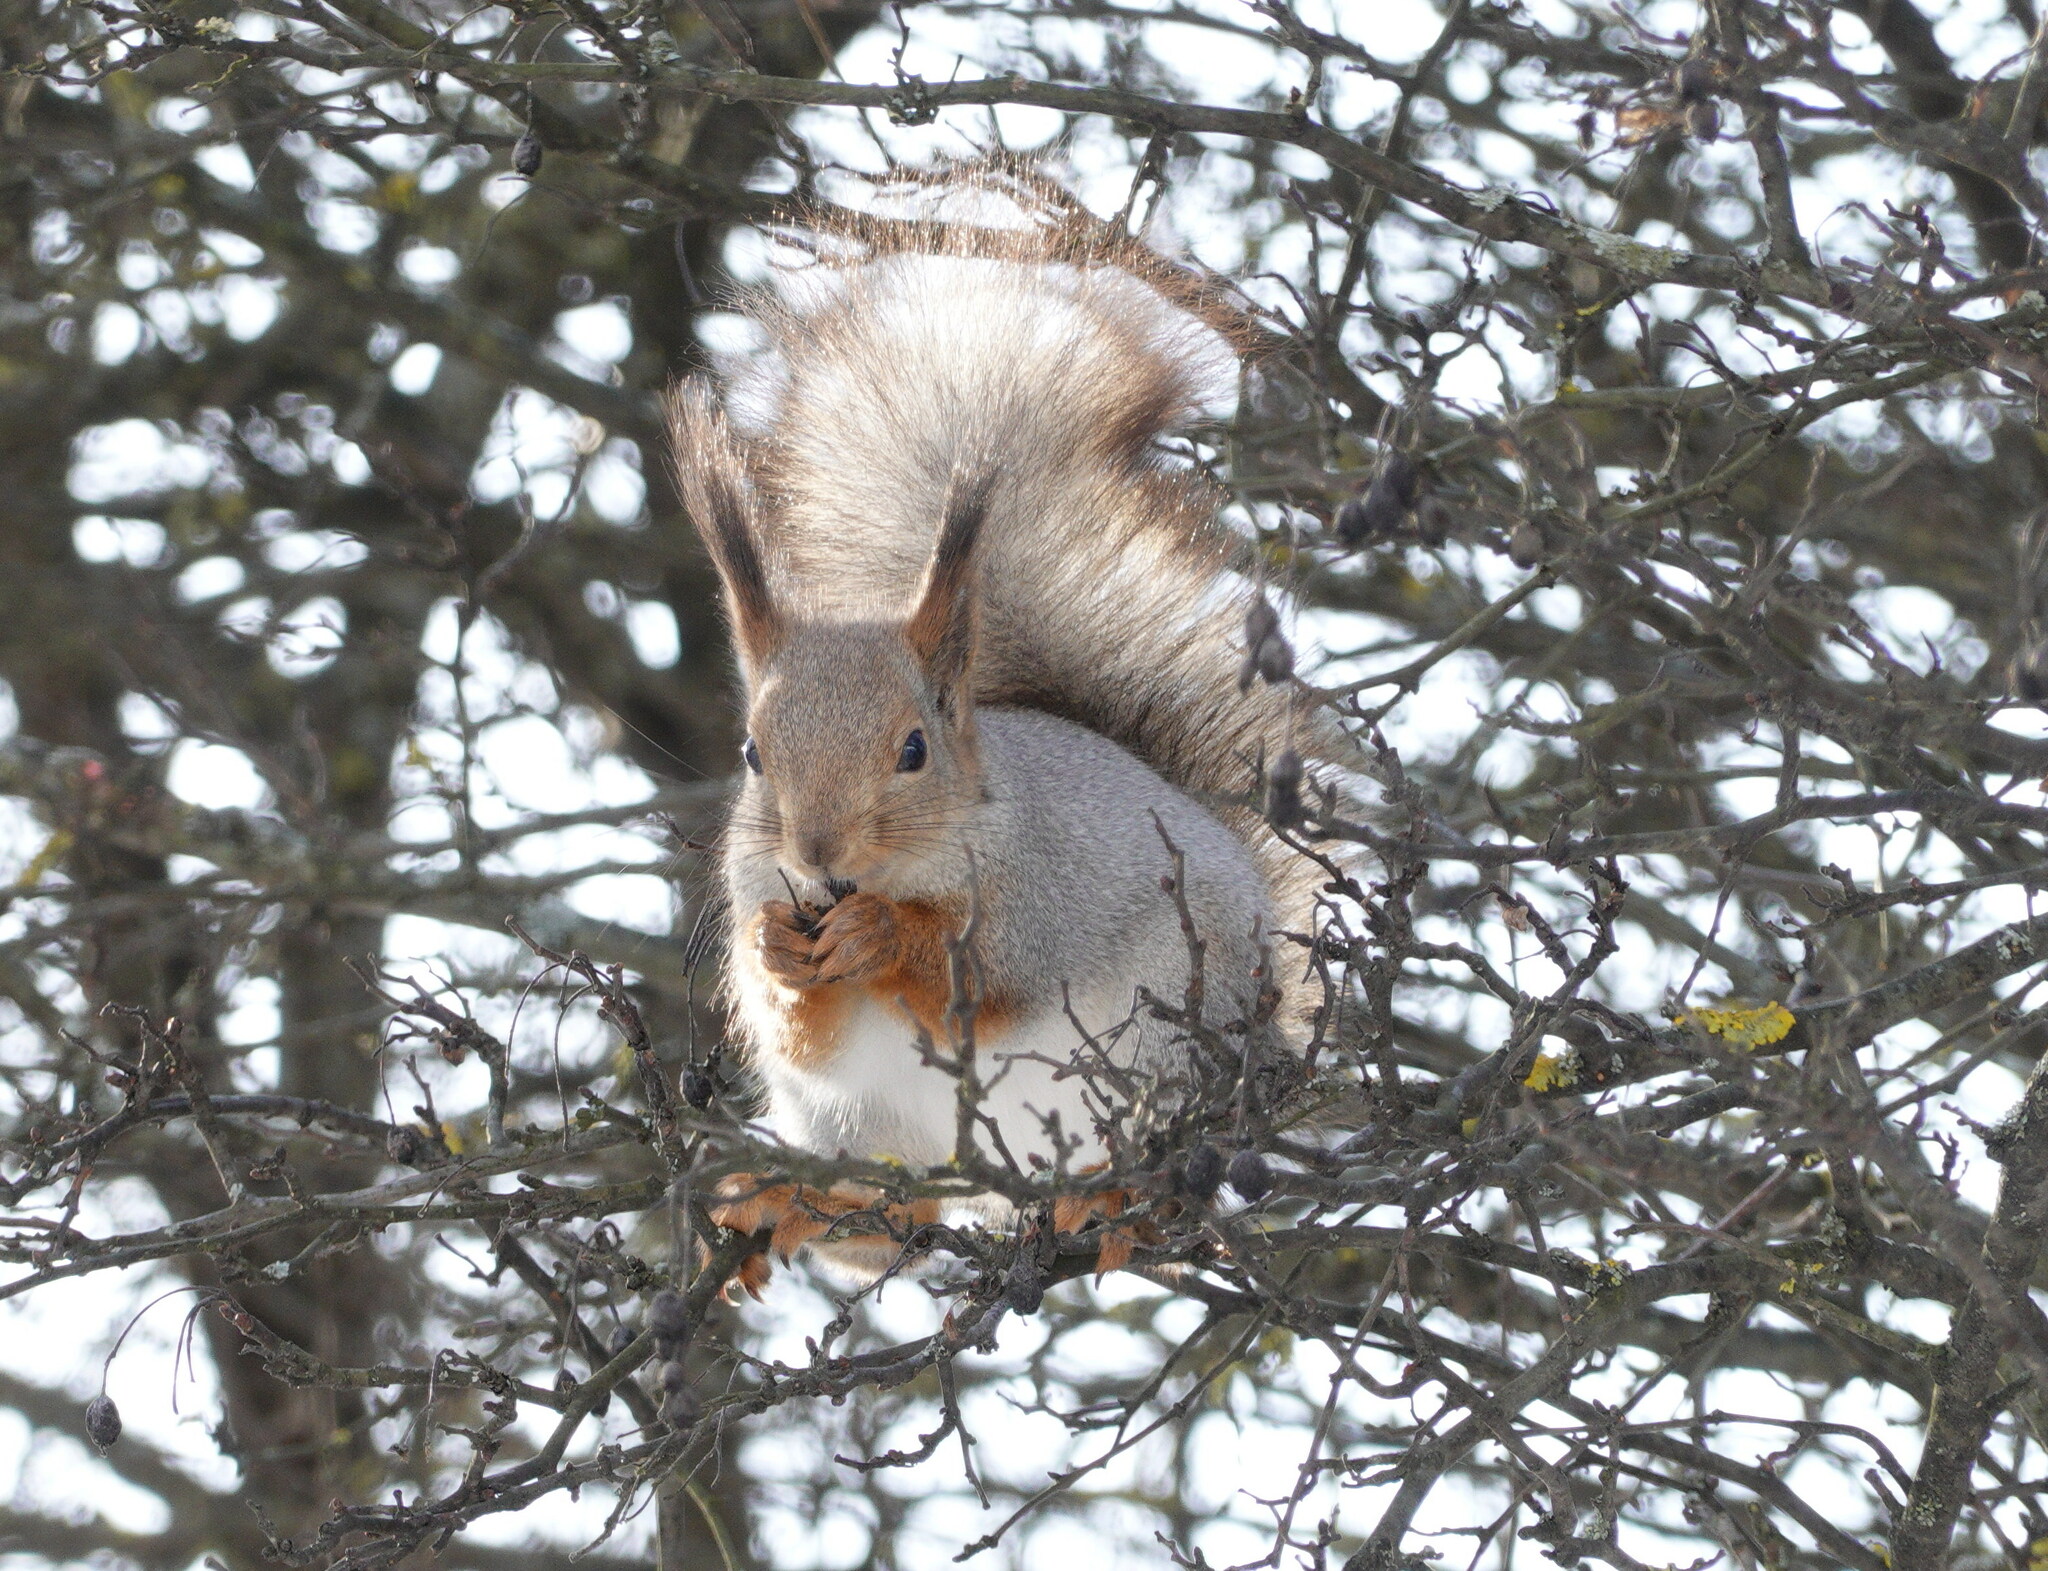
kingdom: Animalia
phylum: Chordata
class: Mammalia
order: Rodentia
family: Sciuridae
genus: Sciurus
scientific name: Sciurus vulgaris
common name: Eurasian red squirrel
